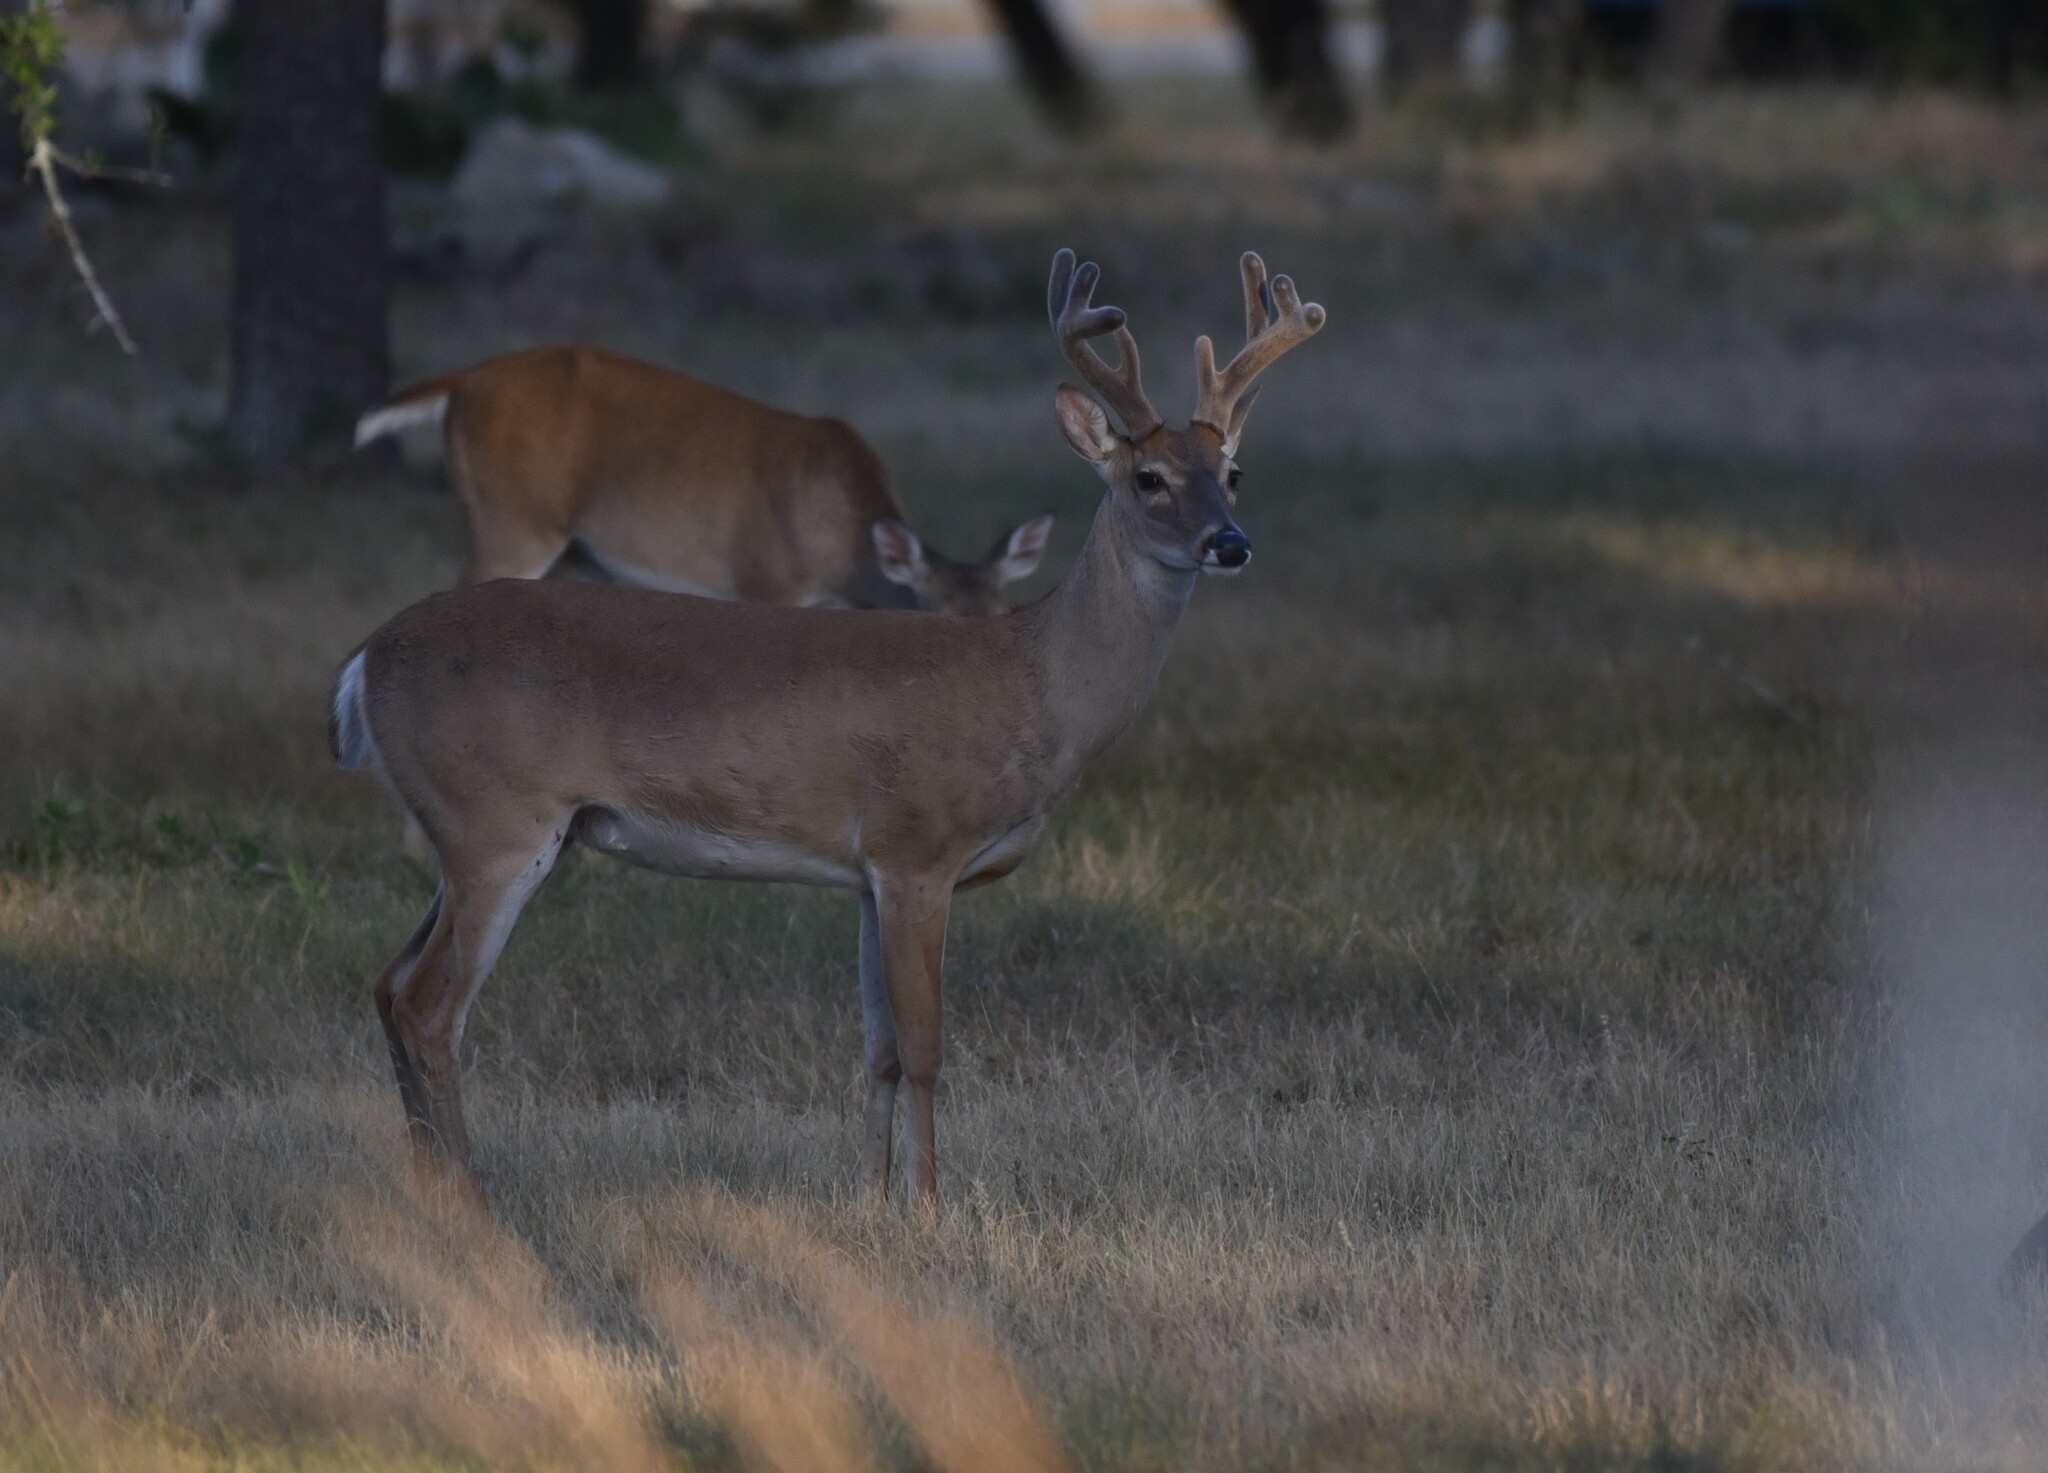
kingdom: Animalia
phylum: Chordata
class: Mammalia
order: Artiodactyla
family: Cervidae
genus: Odocoileus
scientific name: Odocoileus virginianus
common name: White-tailed deer
